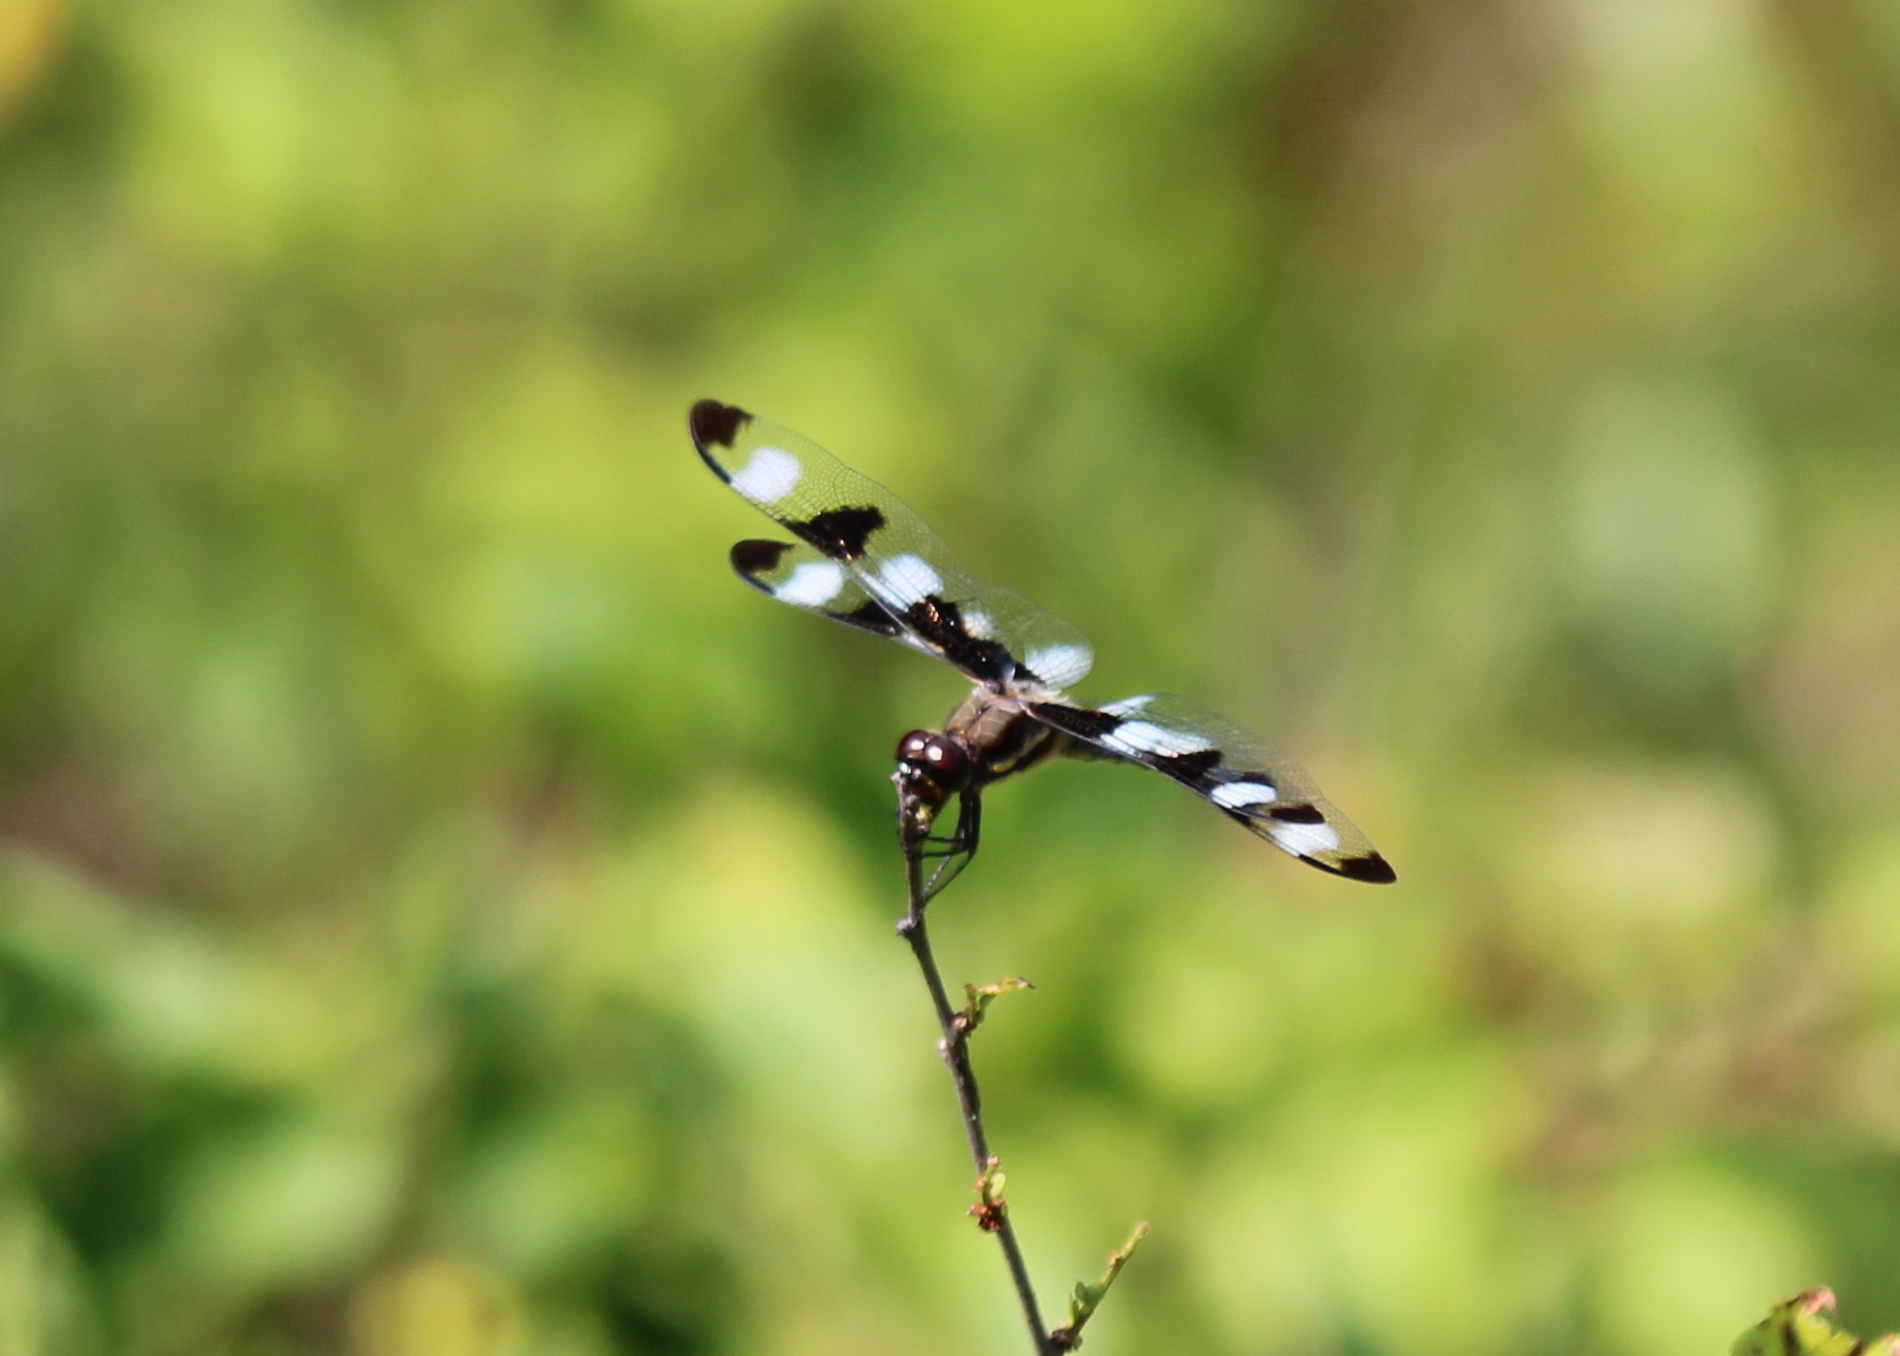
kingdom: Animalia
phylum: Arthropoda
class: Insecta
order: Odonata
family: Libellulidae
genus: Libellula
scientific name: Libellula pulchella
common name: Twelve-spotted skimmer
